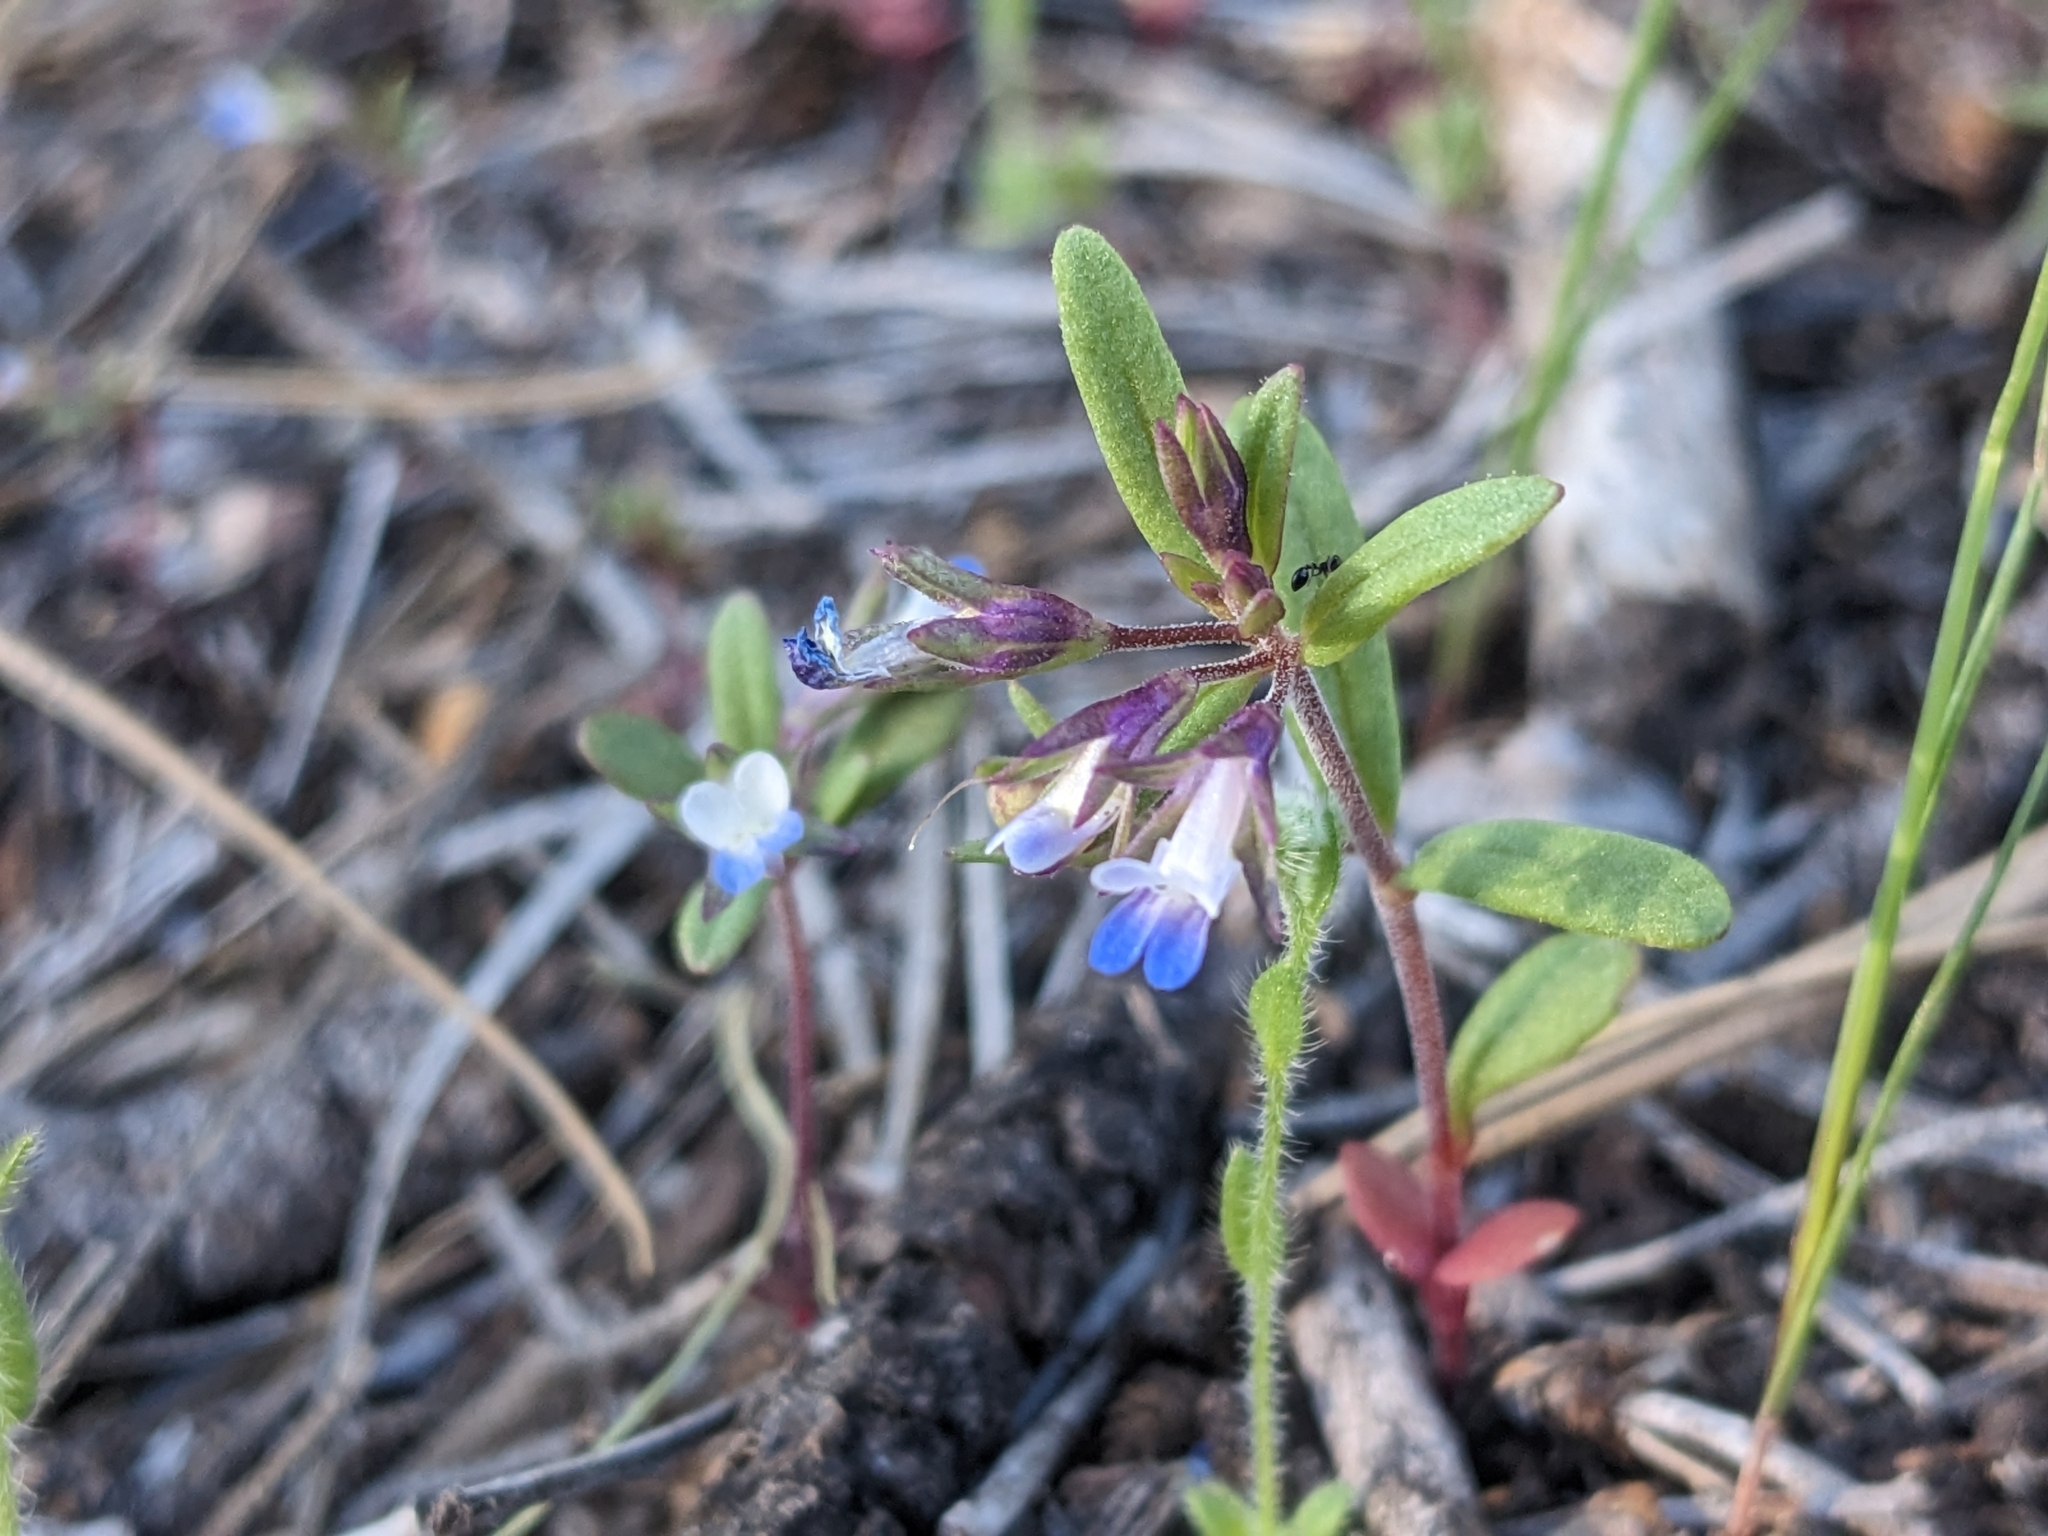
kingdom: Plantae
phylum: Tracheophyta
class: Magnoliopsida
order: Lamiales
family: Plantaginaceae
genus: Collinsia
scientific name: Collinsia parviflora
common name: Blue-lips
